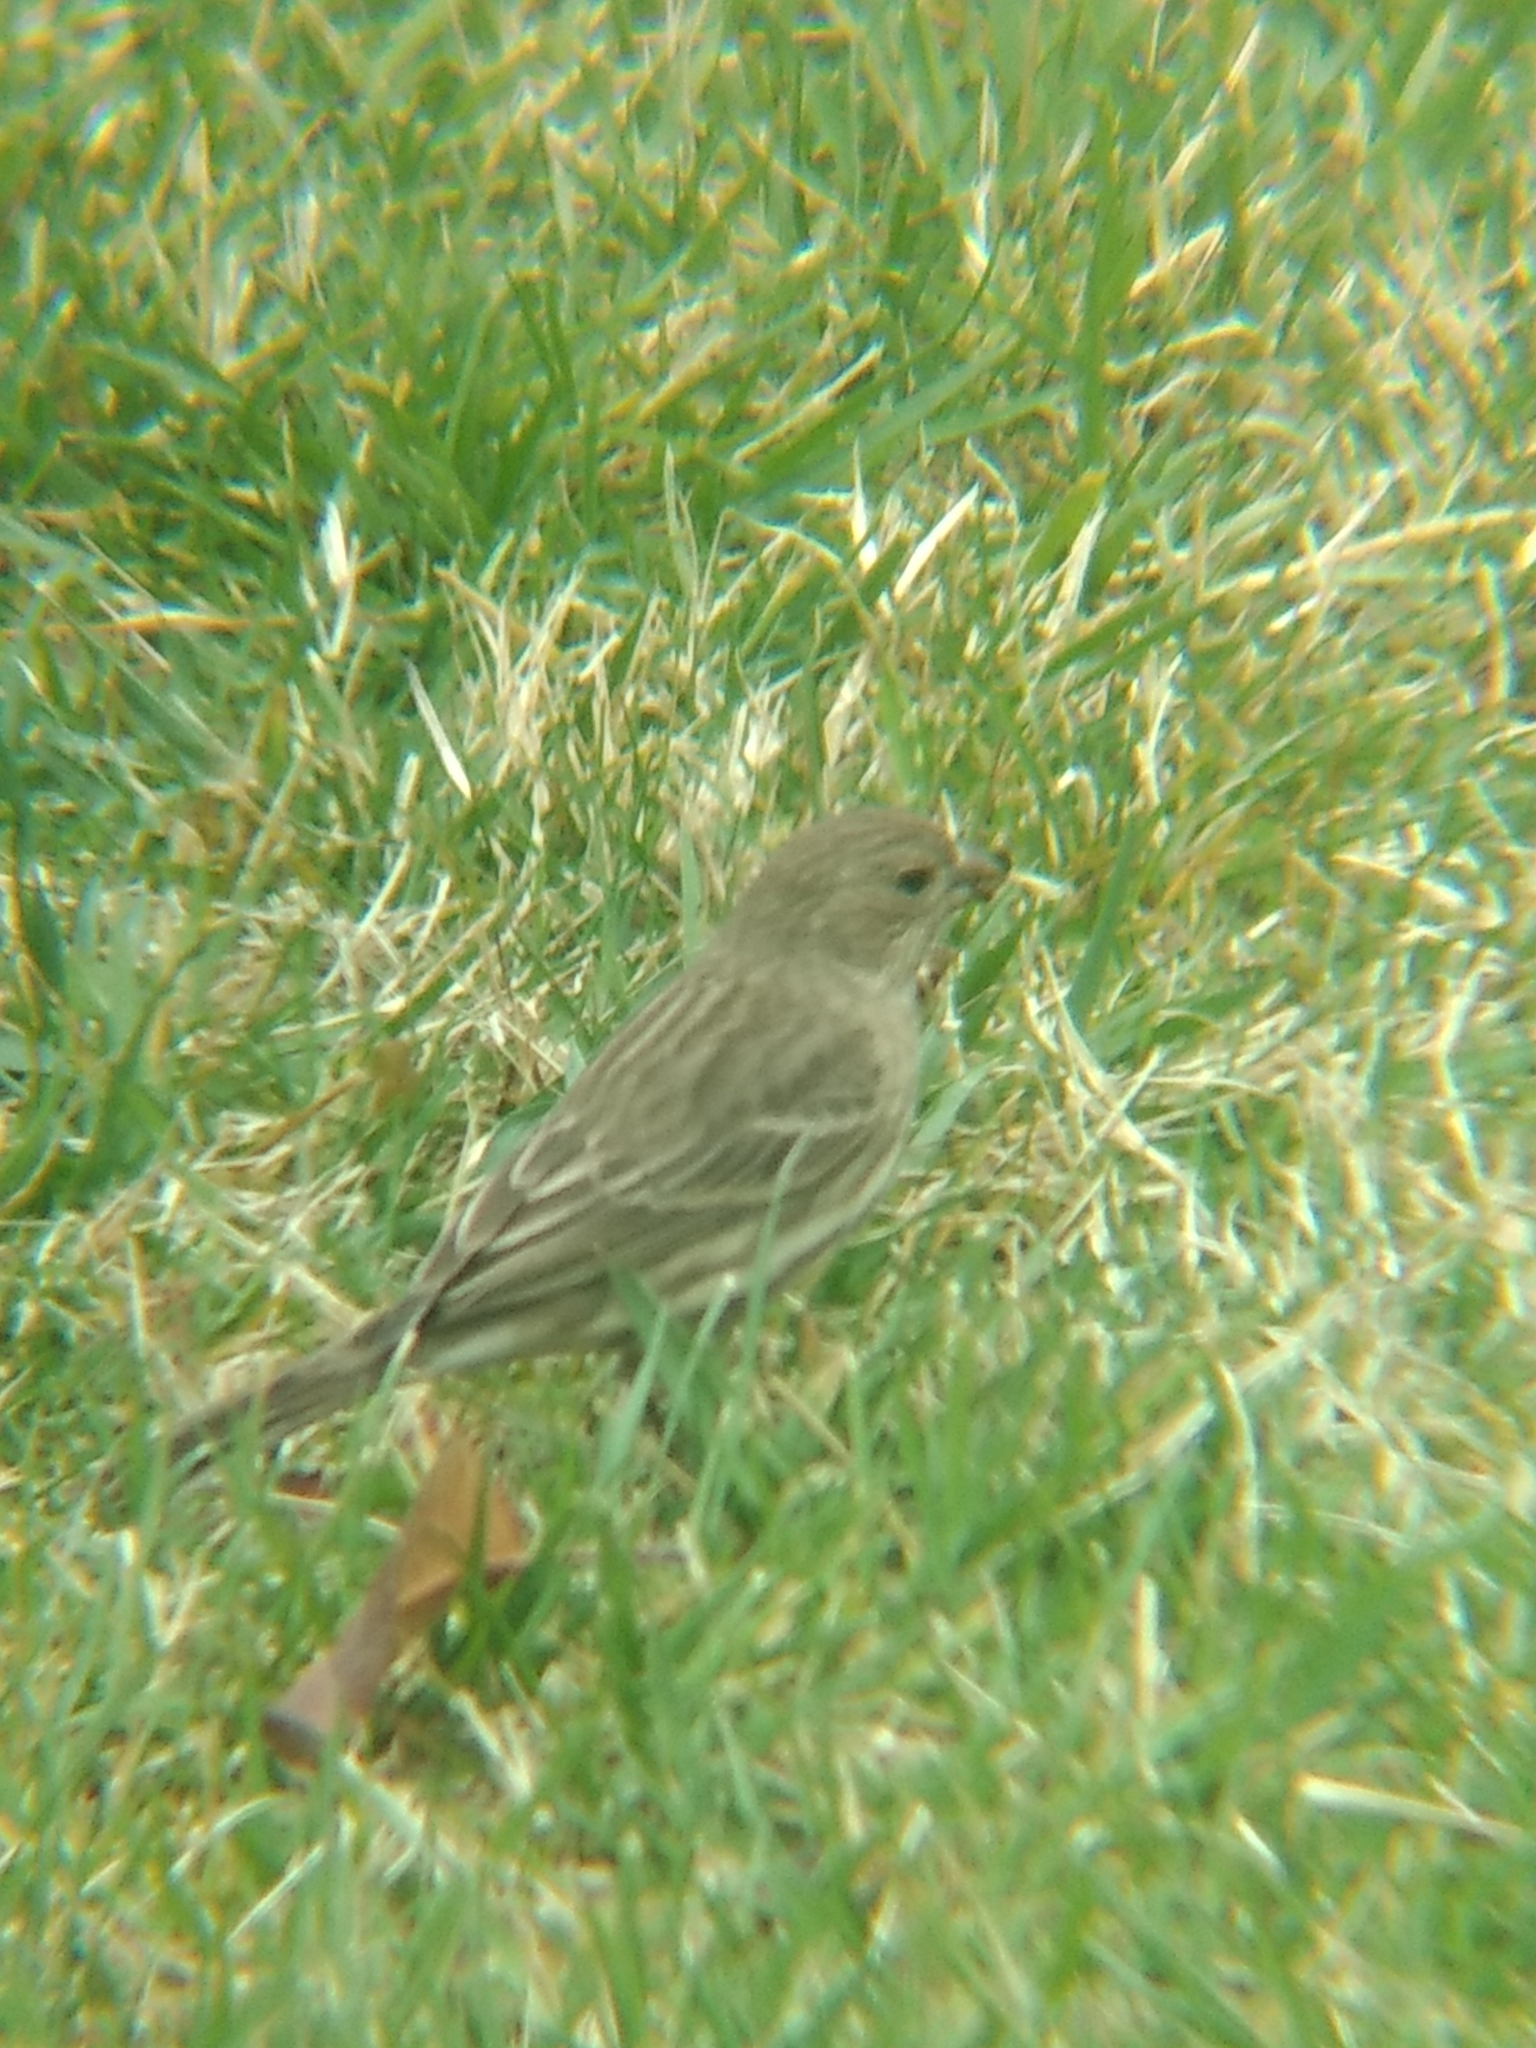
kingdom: Animalia
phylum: Chordata
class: Aves
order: Passeriformes
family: Fringillidae
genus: Haemorhous
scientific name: Haemorhous mexicanus
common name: House finch
